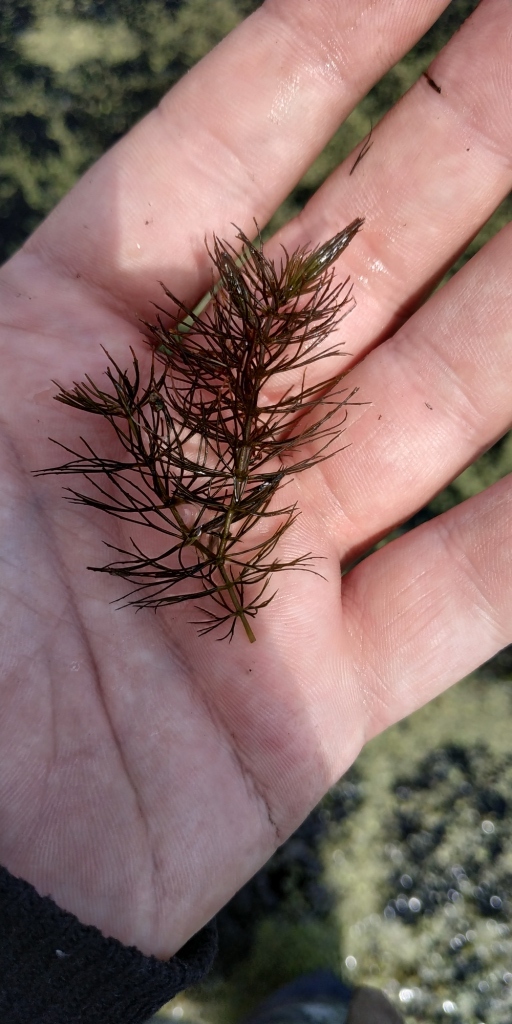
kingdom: Plantae
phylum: Tracheophyta
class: Magnoliopsida
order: Ceratophyllales
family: Ceratophyllaceae
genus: Ceratophyllum
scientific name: Ceratophyllum demersum
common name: Rigid hornwort
